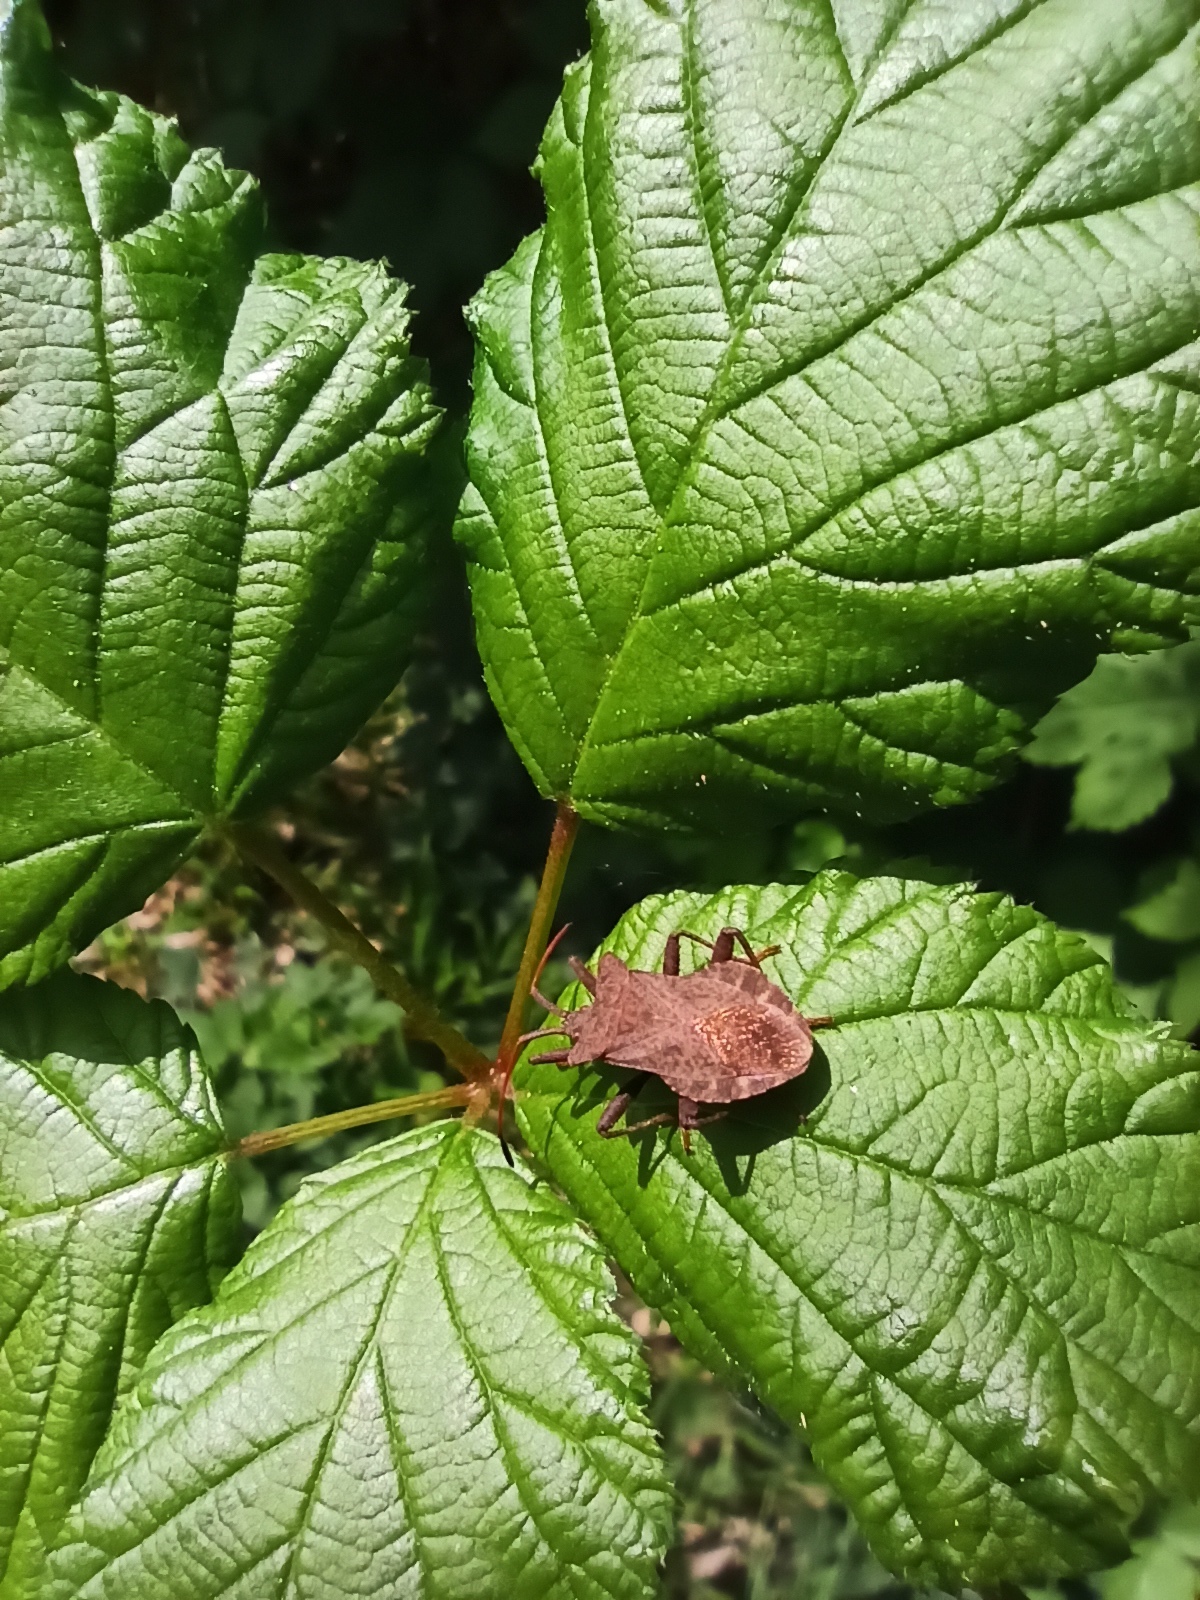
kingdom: Animalia
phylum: Arthropoda
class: Insecta
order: Hemiptera
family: Coreidae
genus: Coreus
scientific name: Coreus marginatus
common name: Dock bug
